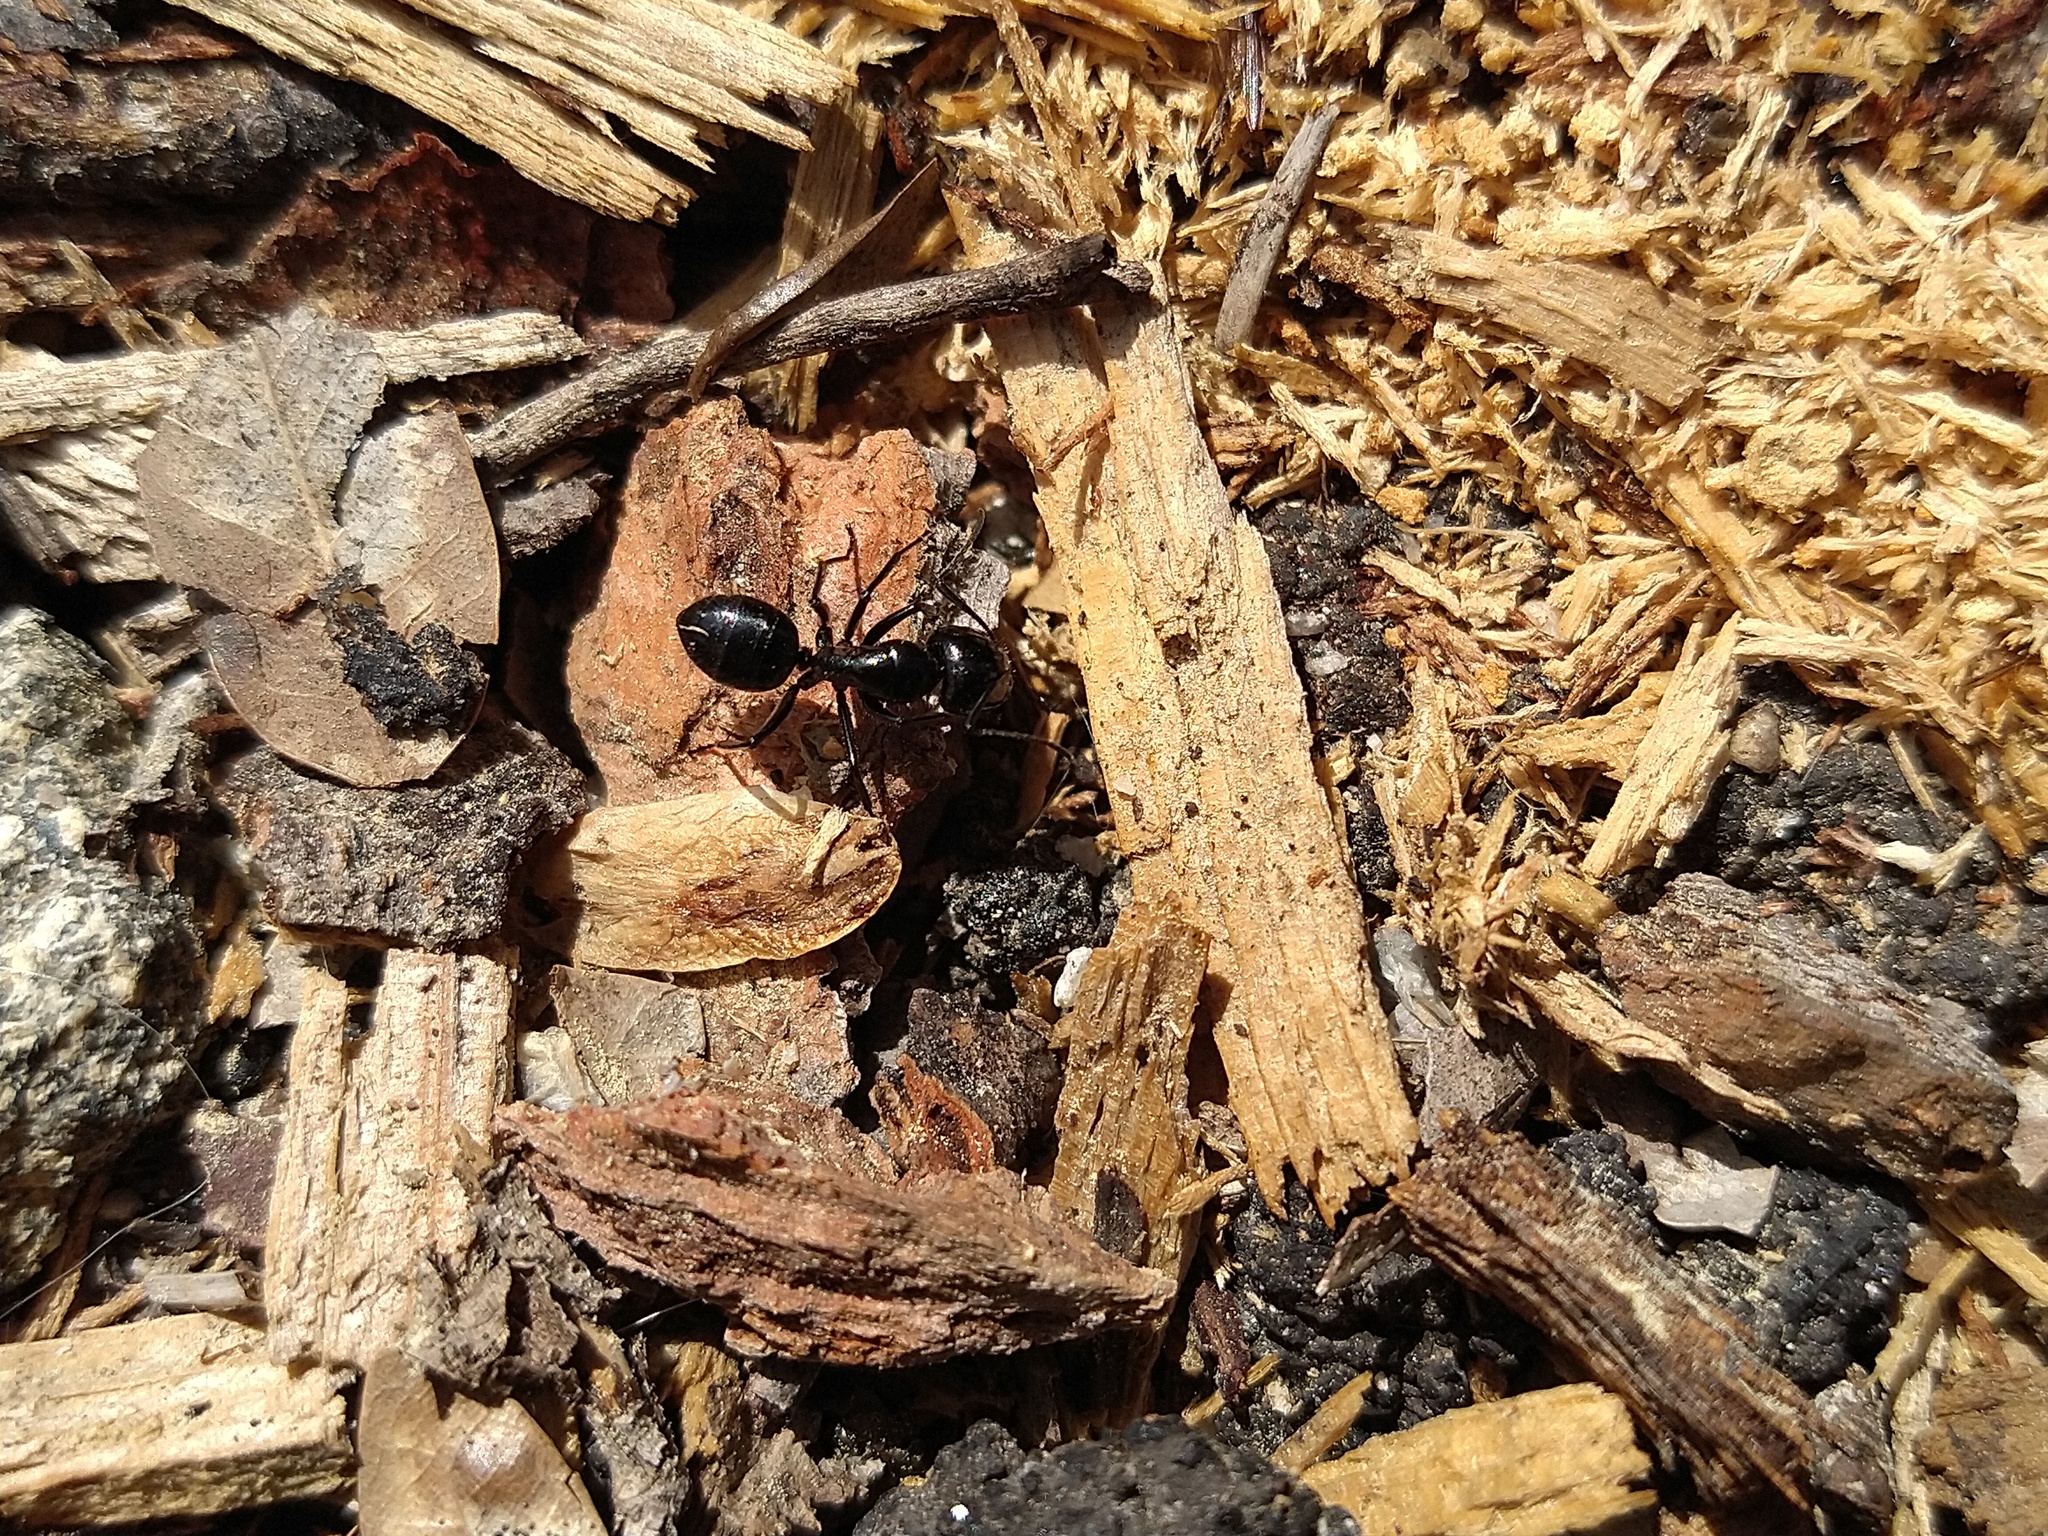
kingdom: Animalia
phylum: Arthropoda
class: Insecta
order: Hymenoptera
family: Formicidae
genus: Camponotus
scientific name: Camponotus
